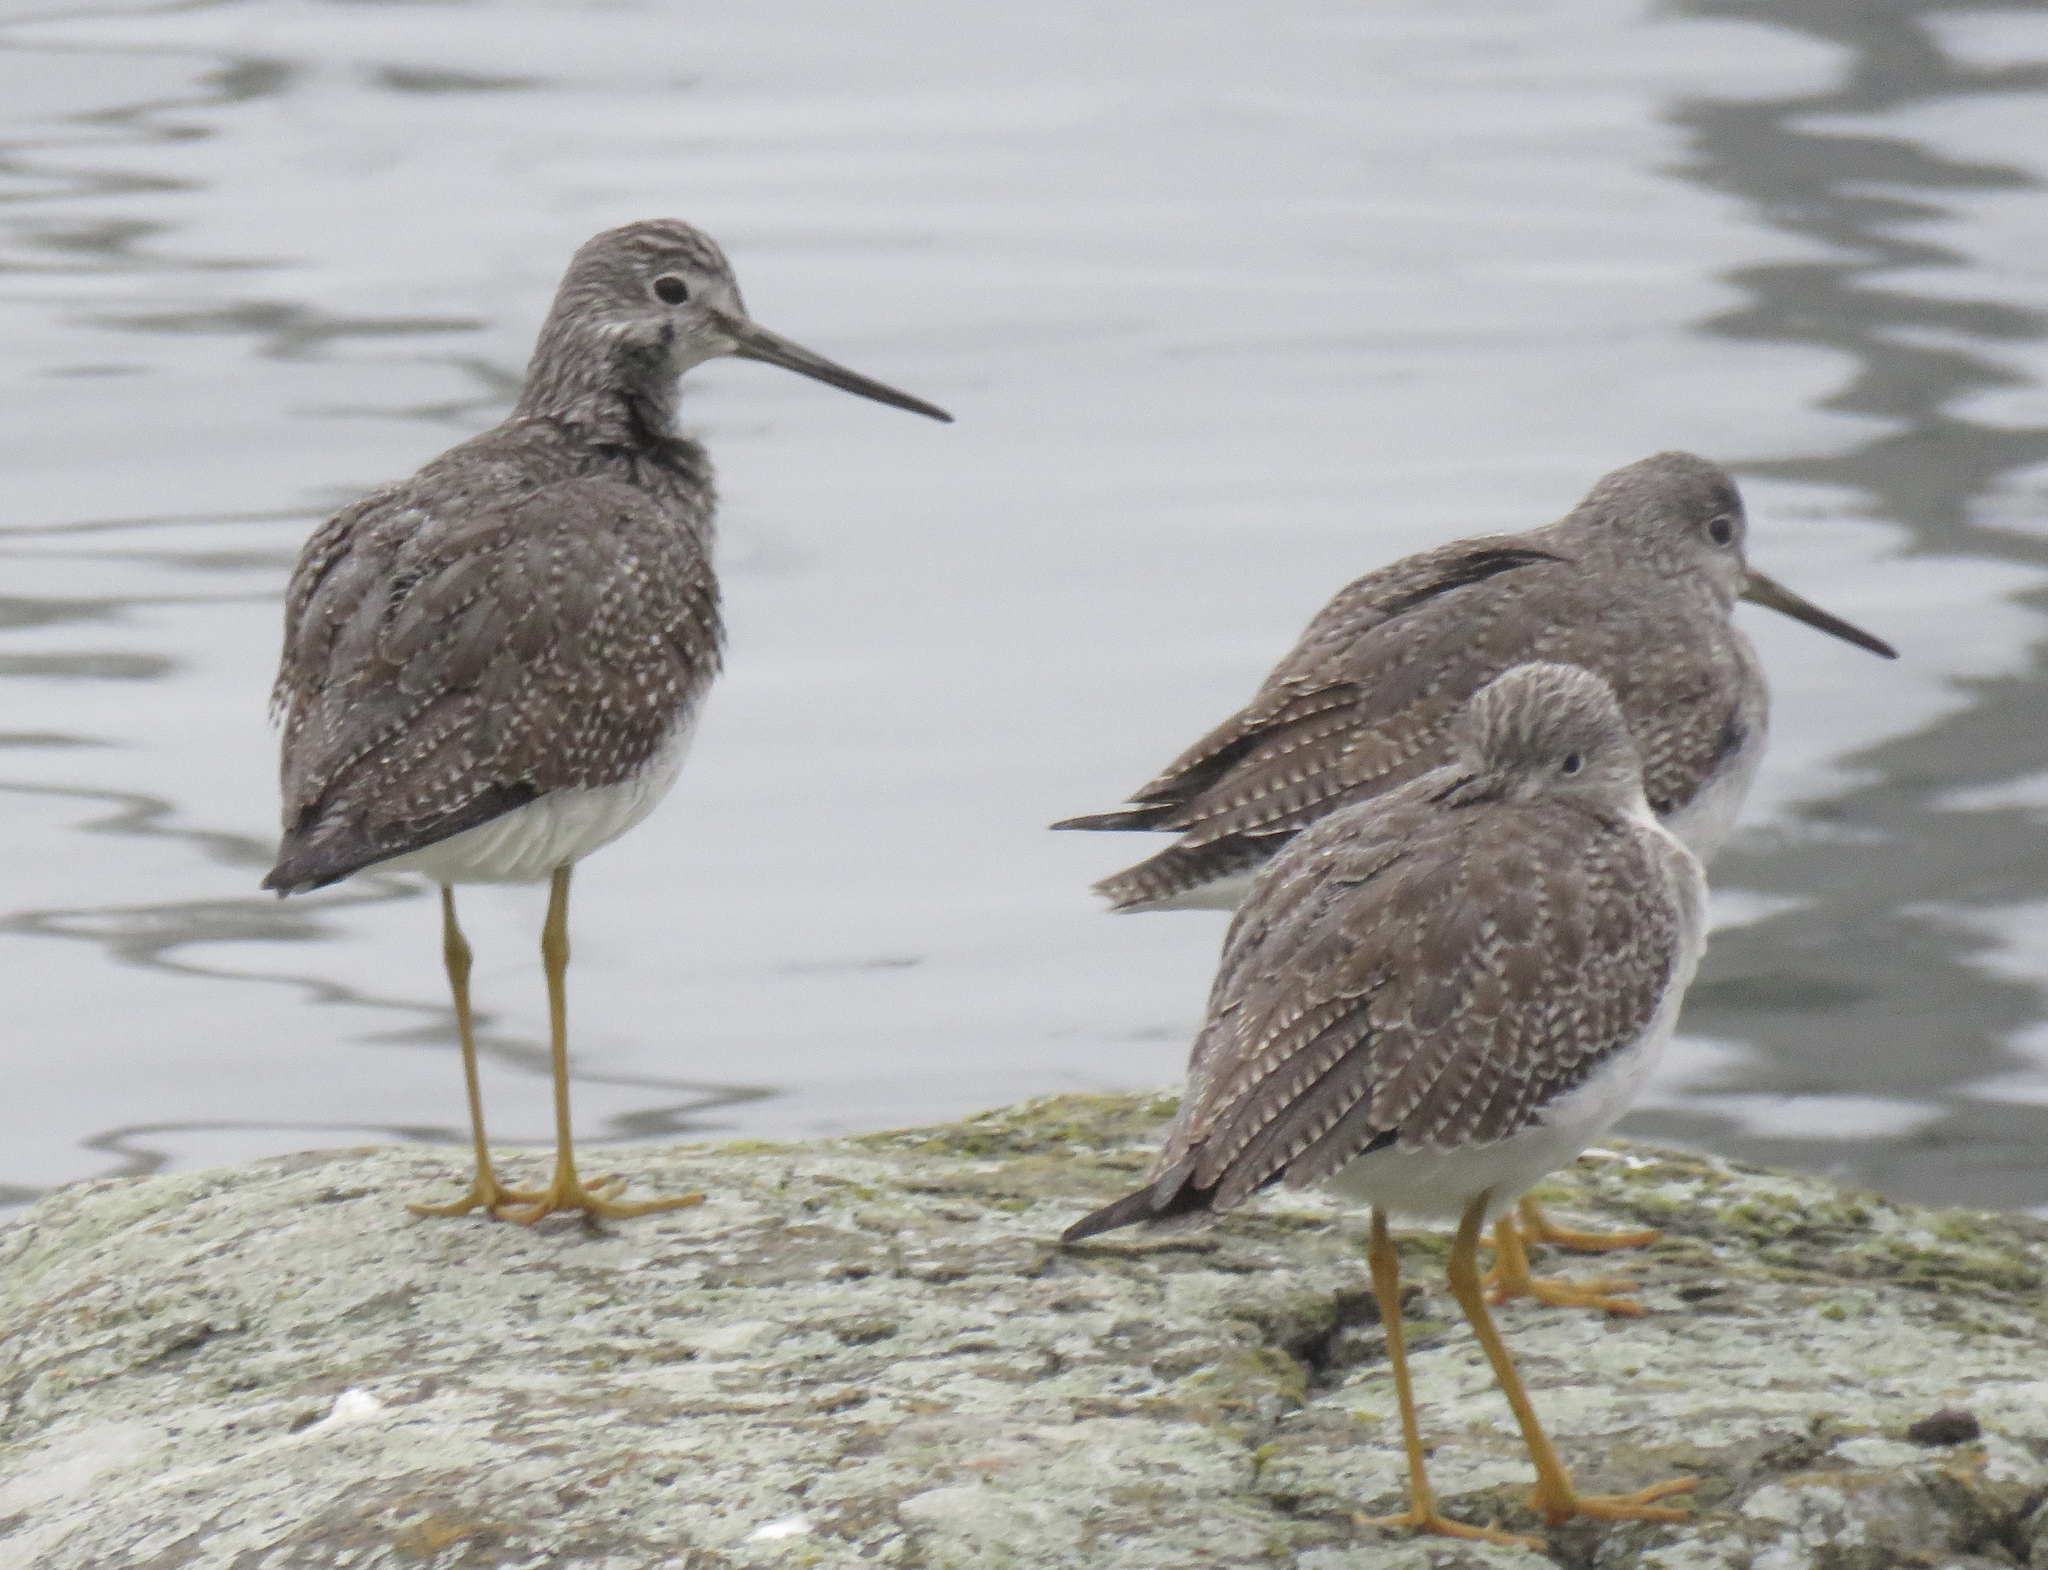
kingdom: Animalia
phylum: Chordata
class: Aves
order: Charadriiformes
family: Scolopacidae
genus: Tringa
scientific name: Tringa melanoleuca
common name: Greater yellowlegs
